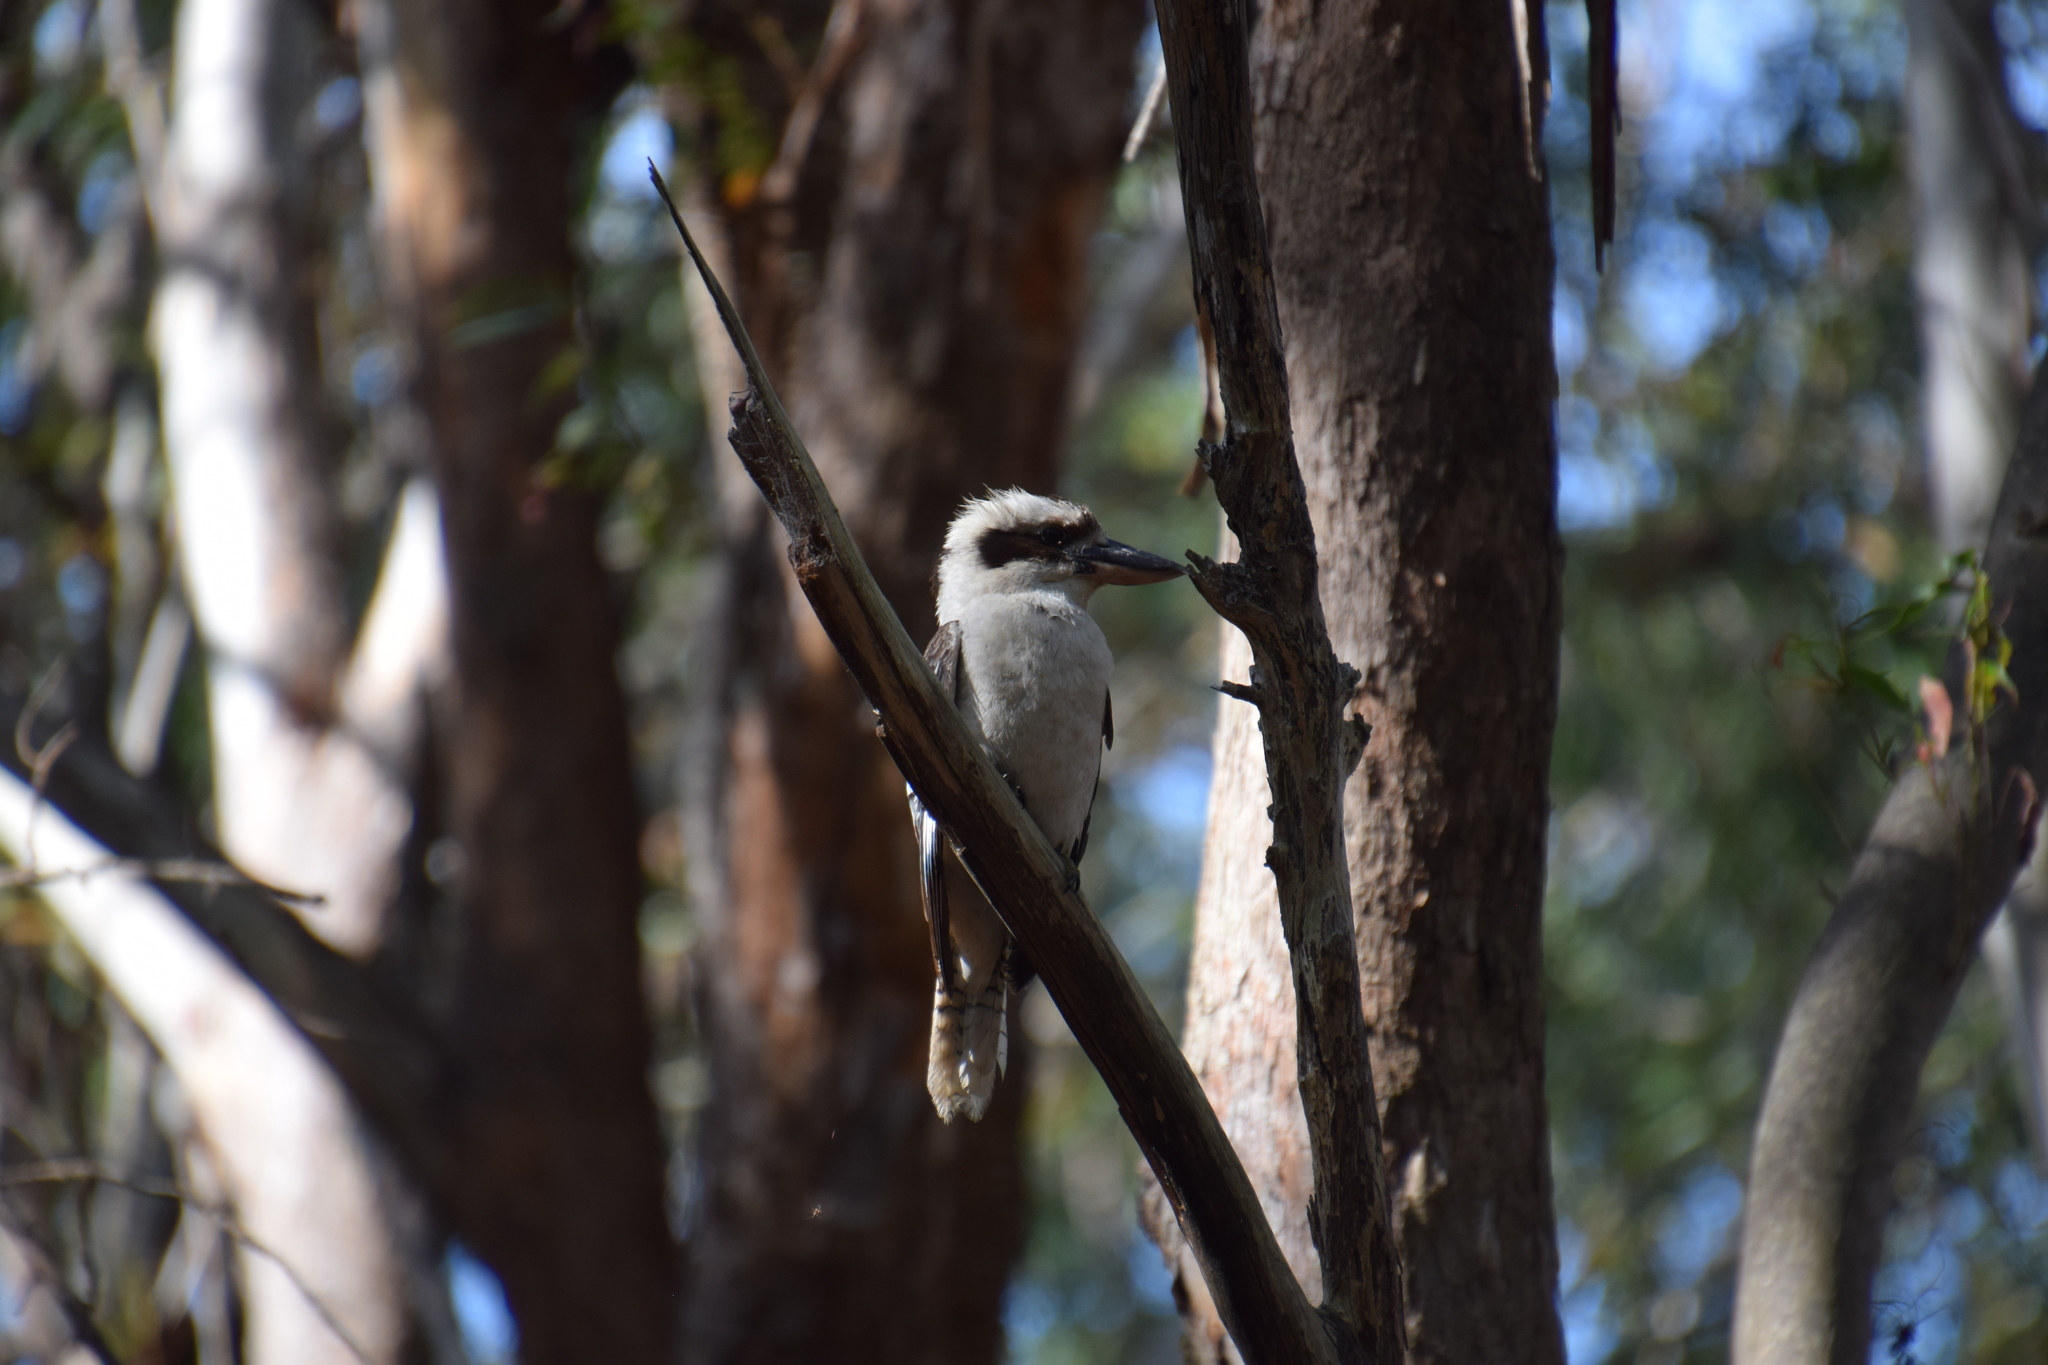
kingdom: Animalia
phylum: Chordata
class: Aves
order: Coraciiformes
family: Alcedinidae
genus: Dacelo
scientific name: Dacelo novaeguineae
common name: Laughing kookaburra
